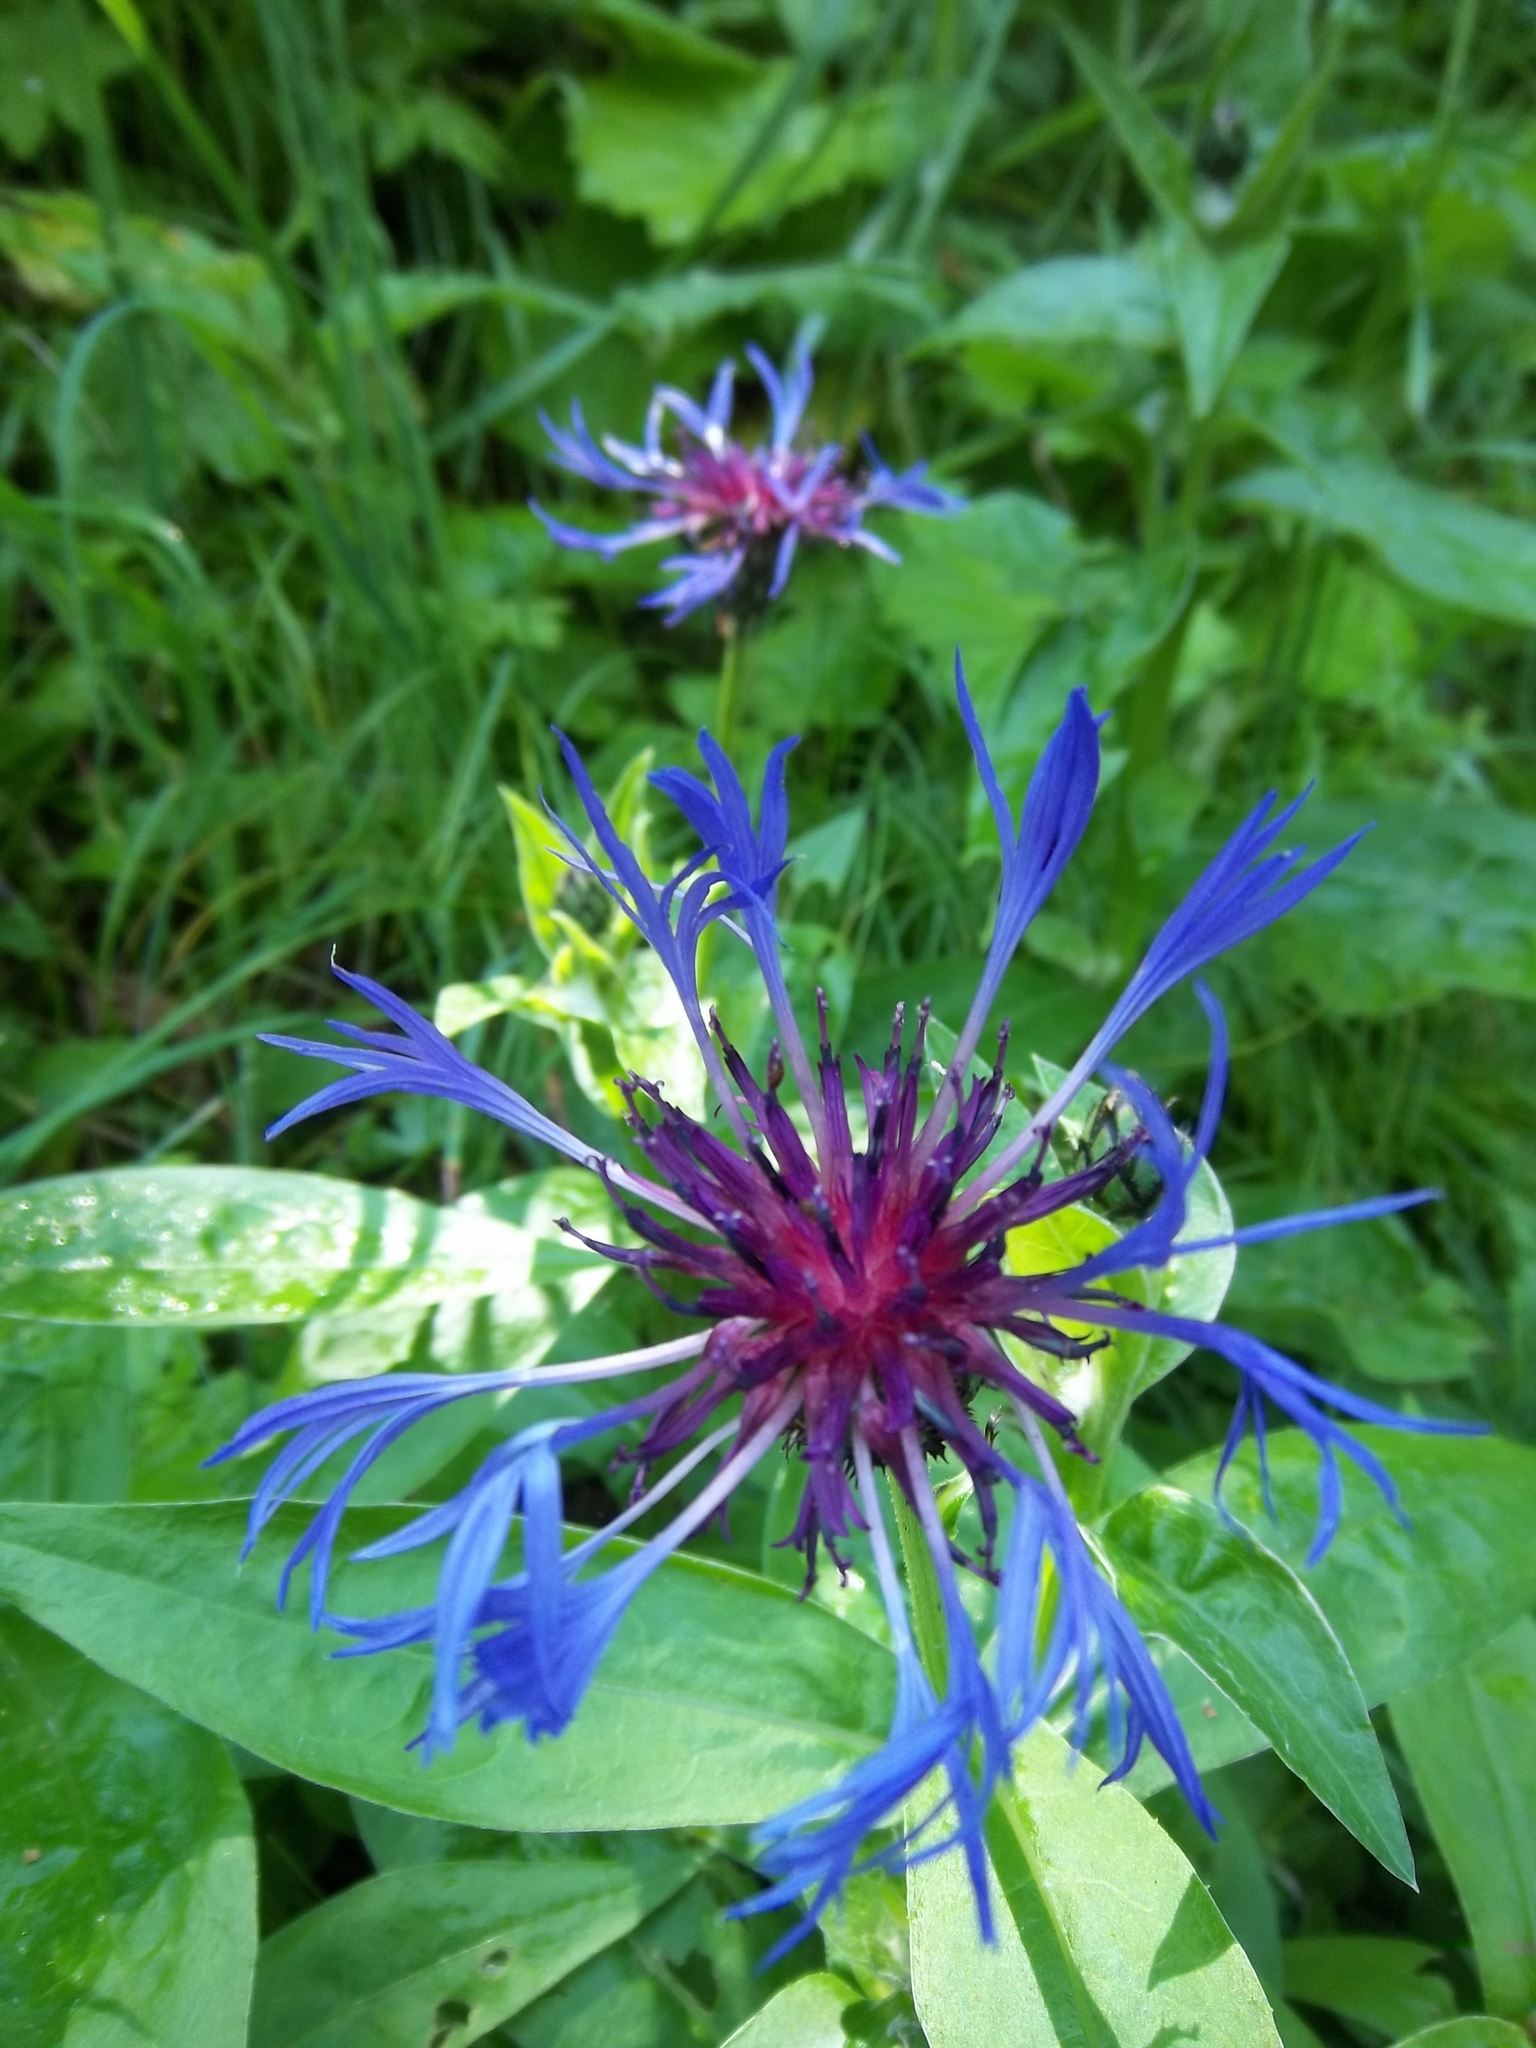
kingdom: Plantae
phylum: Tracheophyta
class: Magnoliopsida
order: Asterales
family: Asteraceae
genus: Centaurea
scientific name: Centaurea montana
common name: Perennial cornflower
